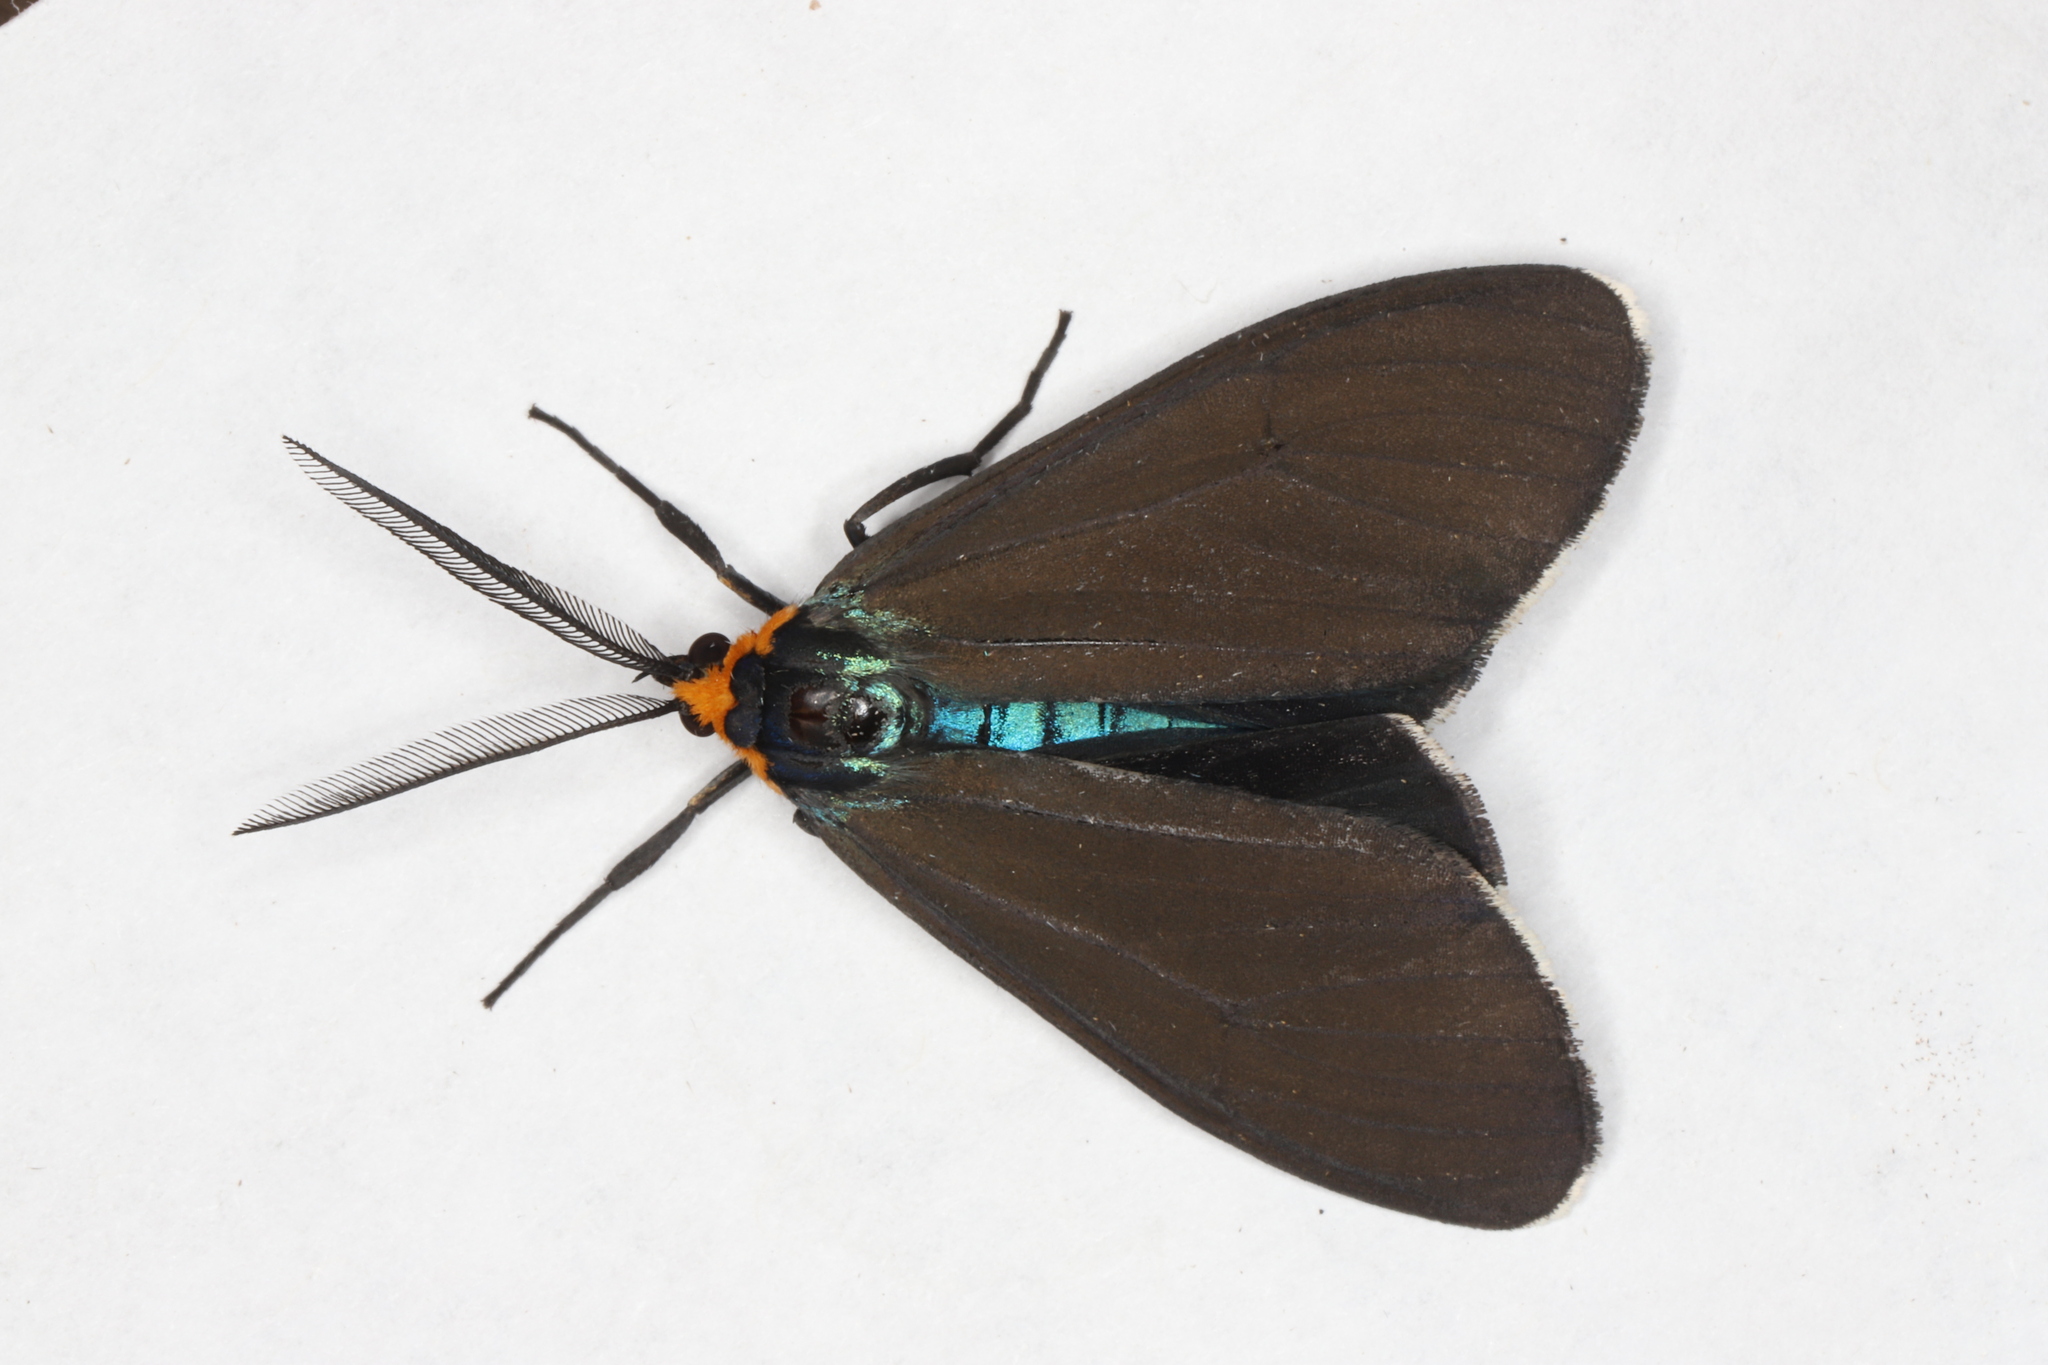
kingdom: Animalia
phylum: Arthropoda
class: Insecta
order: Lepidoptera
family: Erebidae
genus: Ctenucha
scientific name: Ctenucha virginica
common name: Virginia ctenucha moth
